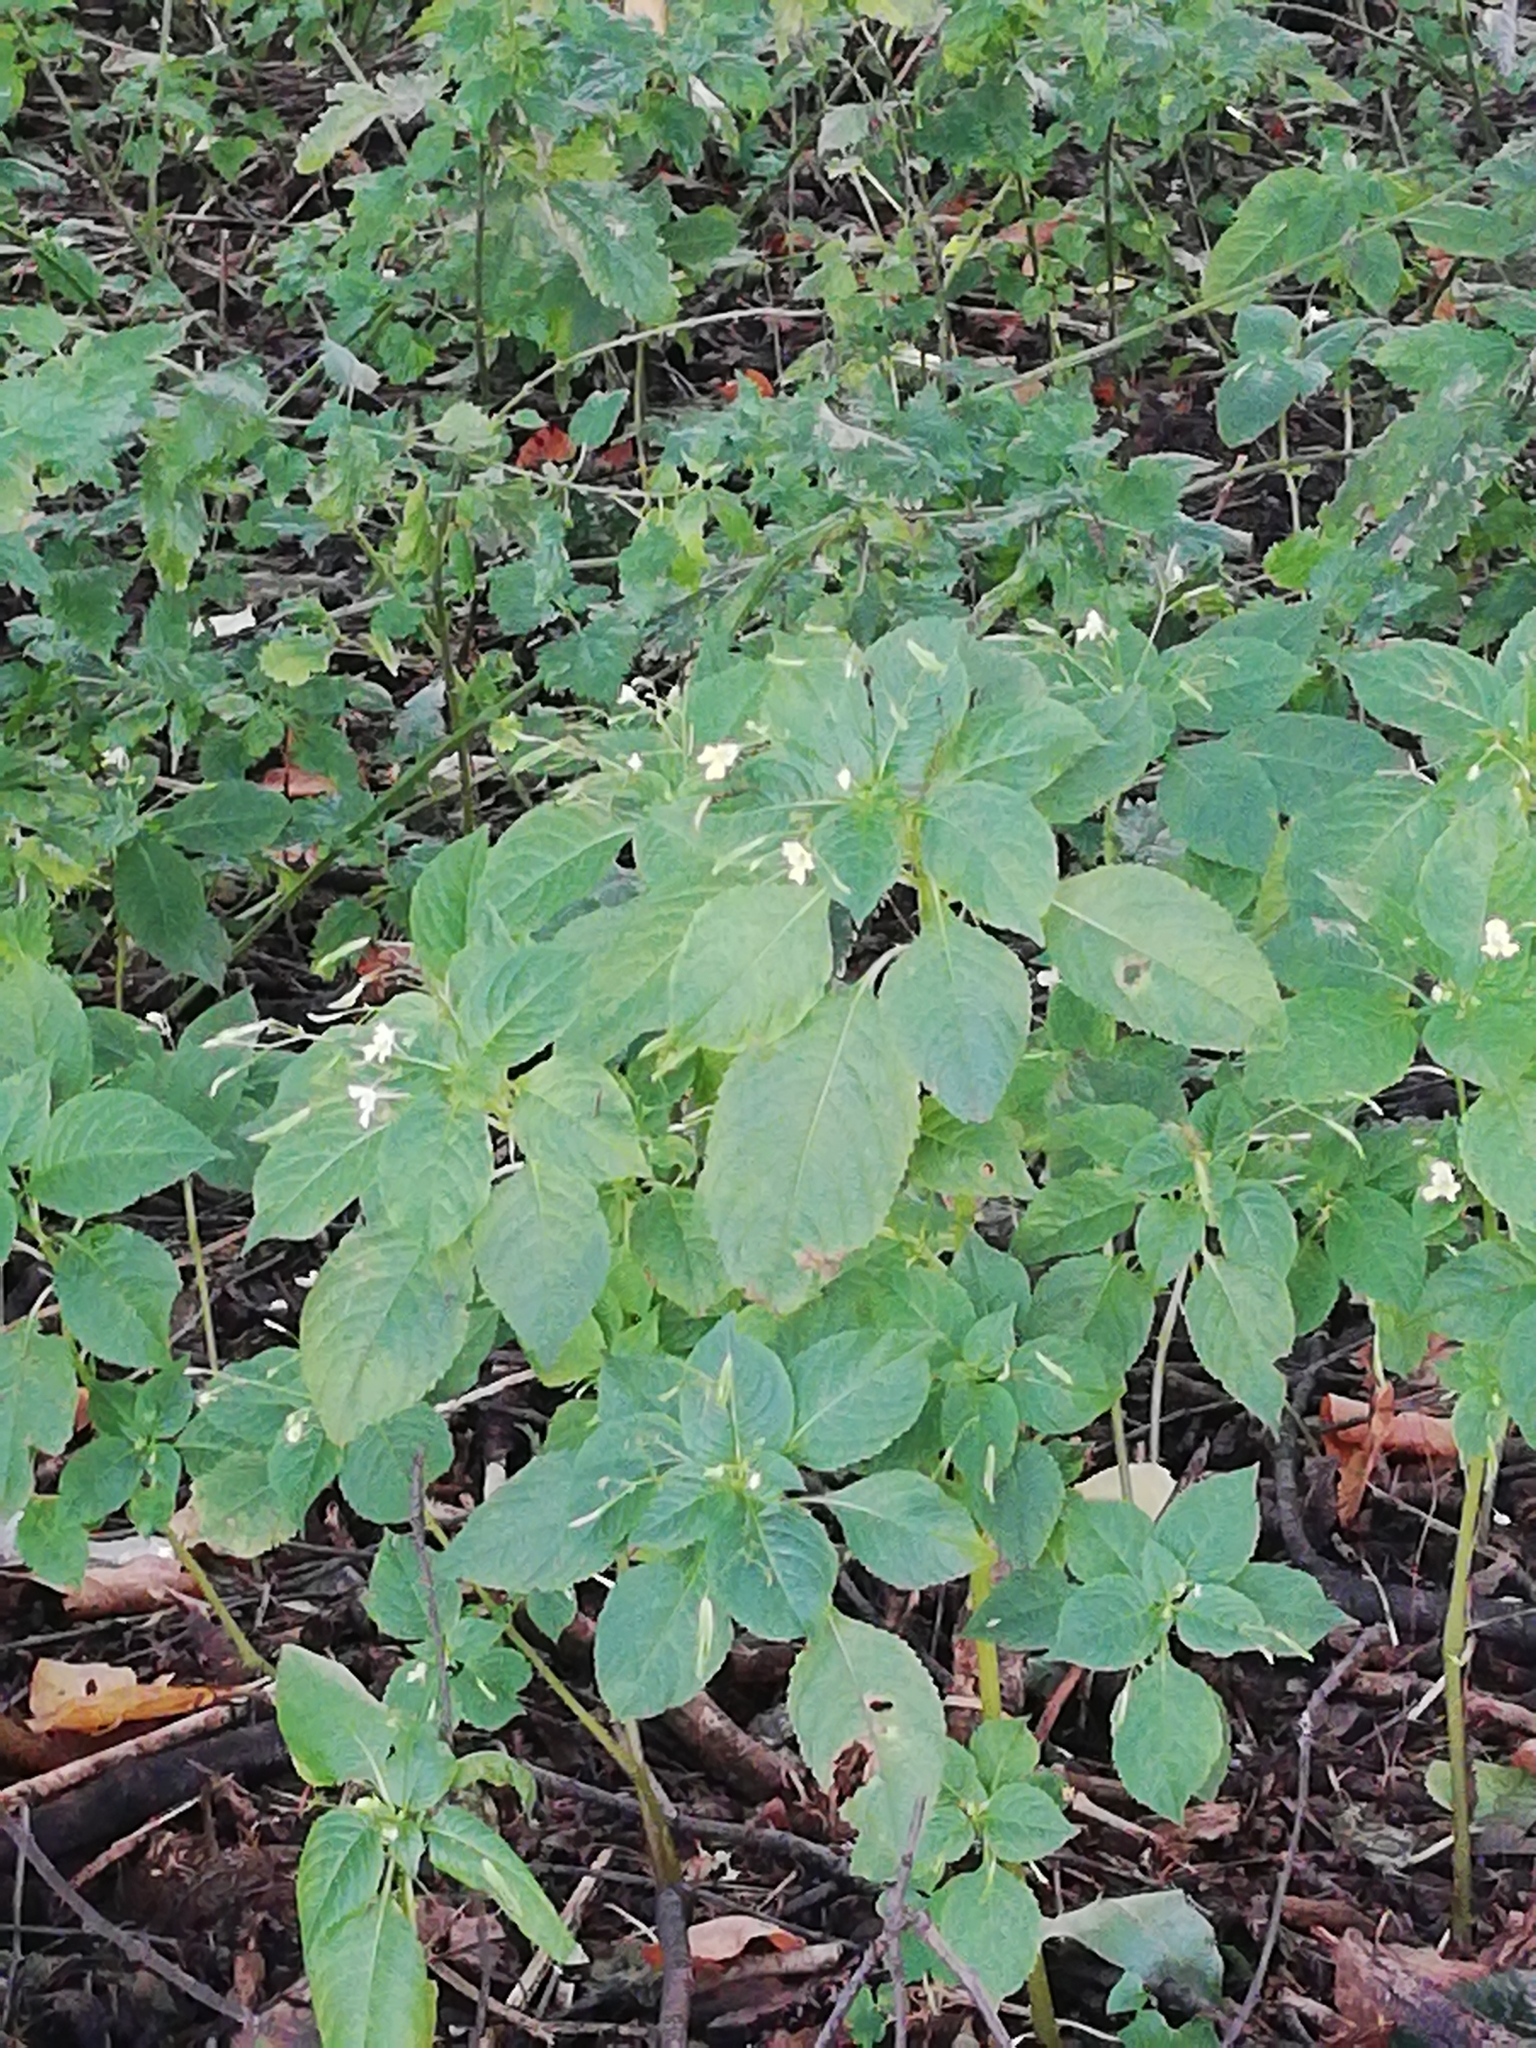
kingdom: Plantae
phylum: Tracheophyta
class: Magnoliopsida
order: Ericales
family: Balsaminaceae
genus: Impatiens
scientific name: Impatiens parviflora
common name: Small balsam
